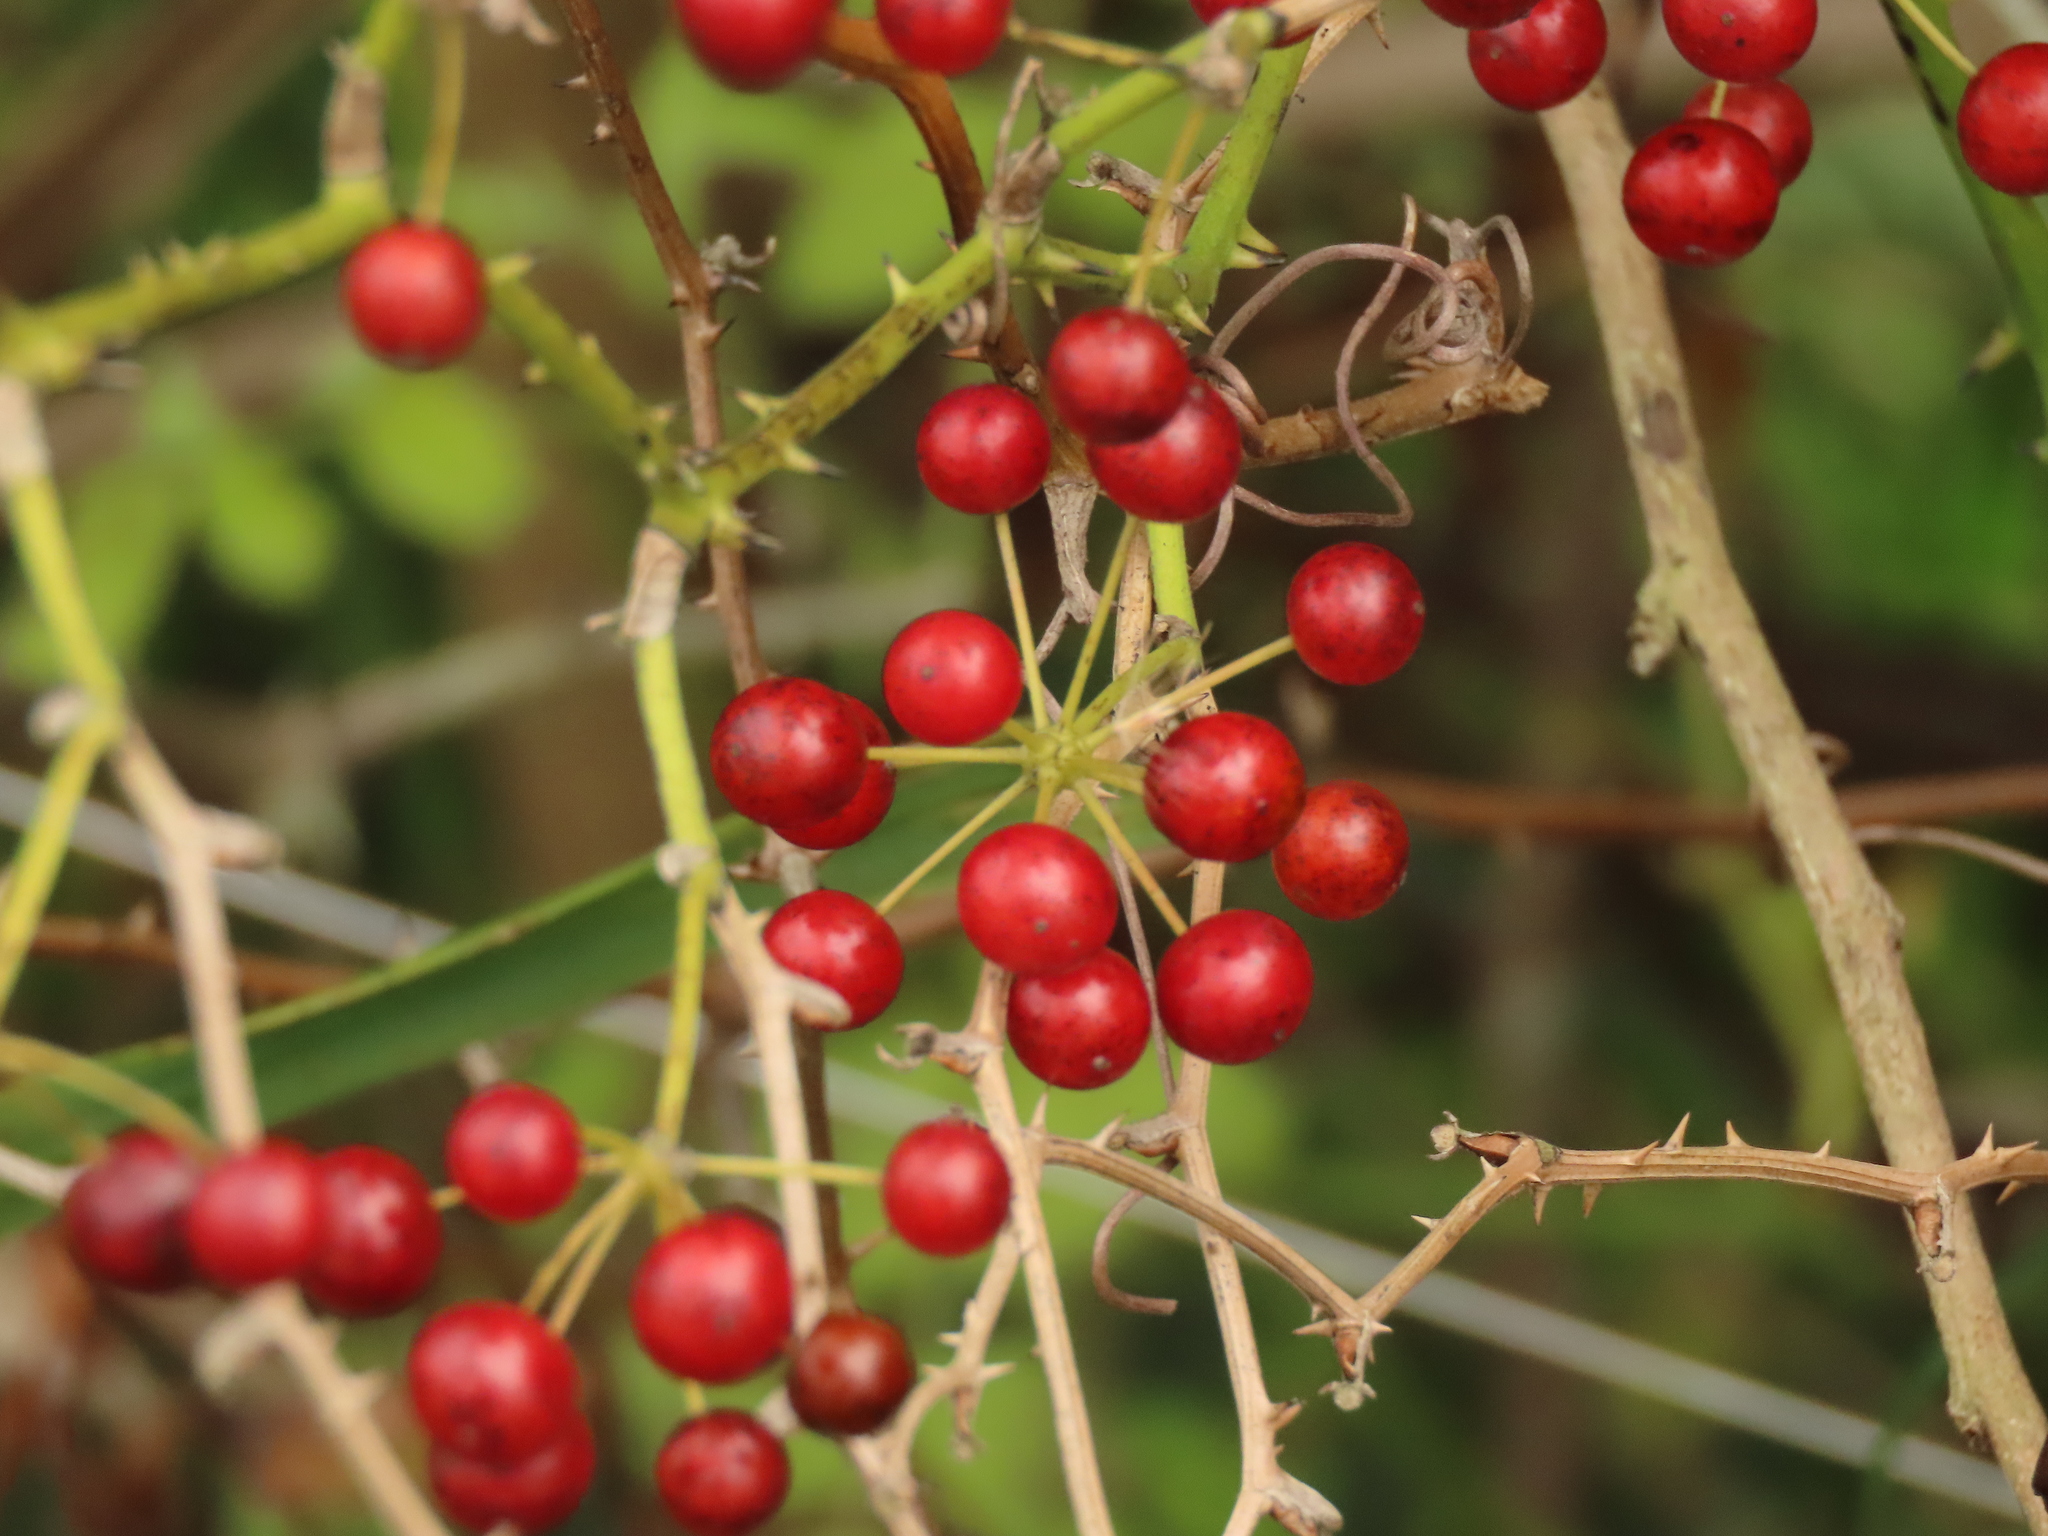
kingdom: Plantae
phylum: Tracheophyta
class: Liliopsida
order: Liliales
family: Smilacaceae
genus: Smilax
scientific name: Smilax china
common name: Chinaroot
